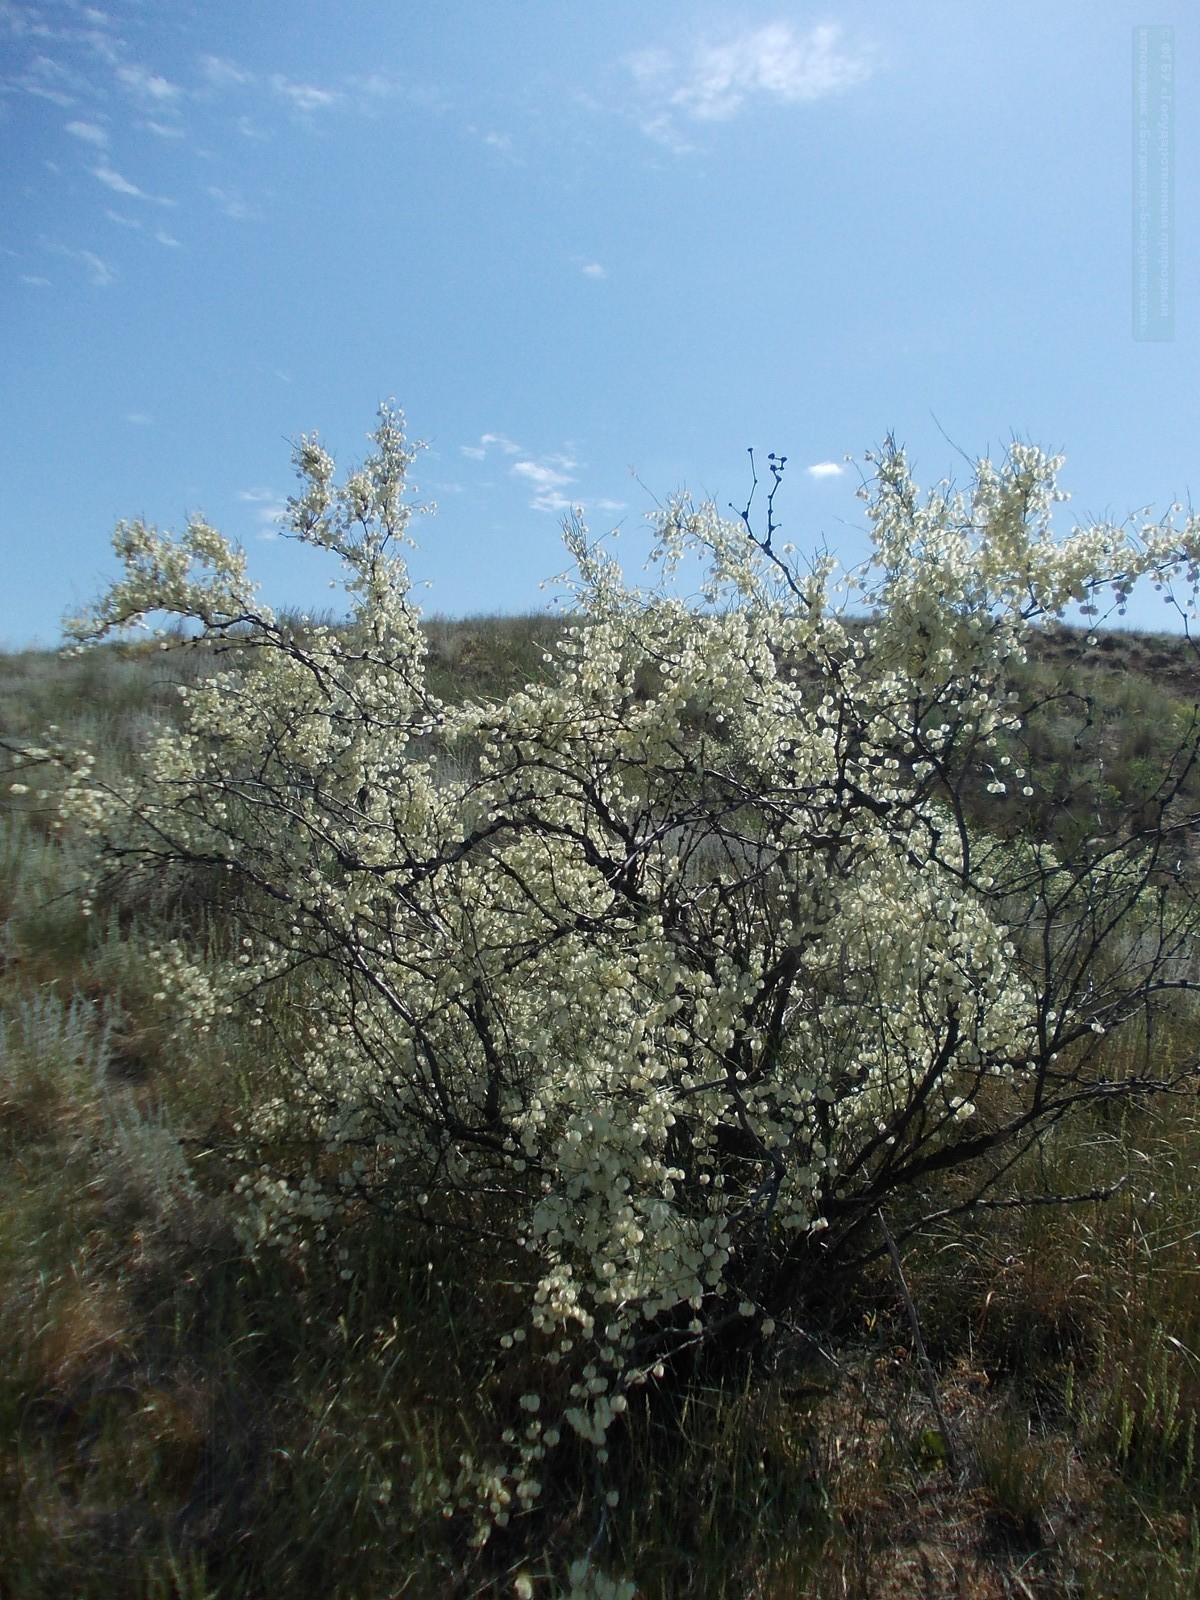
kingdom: Plantae
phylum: Tracheophyta
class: Magnoliopsida
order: Caryophyllales
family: Polygonaceae
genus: Calligonum
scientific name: Calligonum aphyllum
